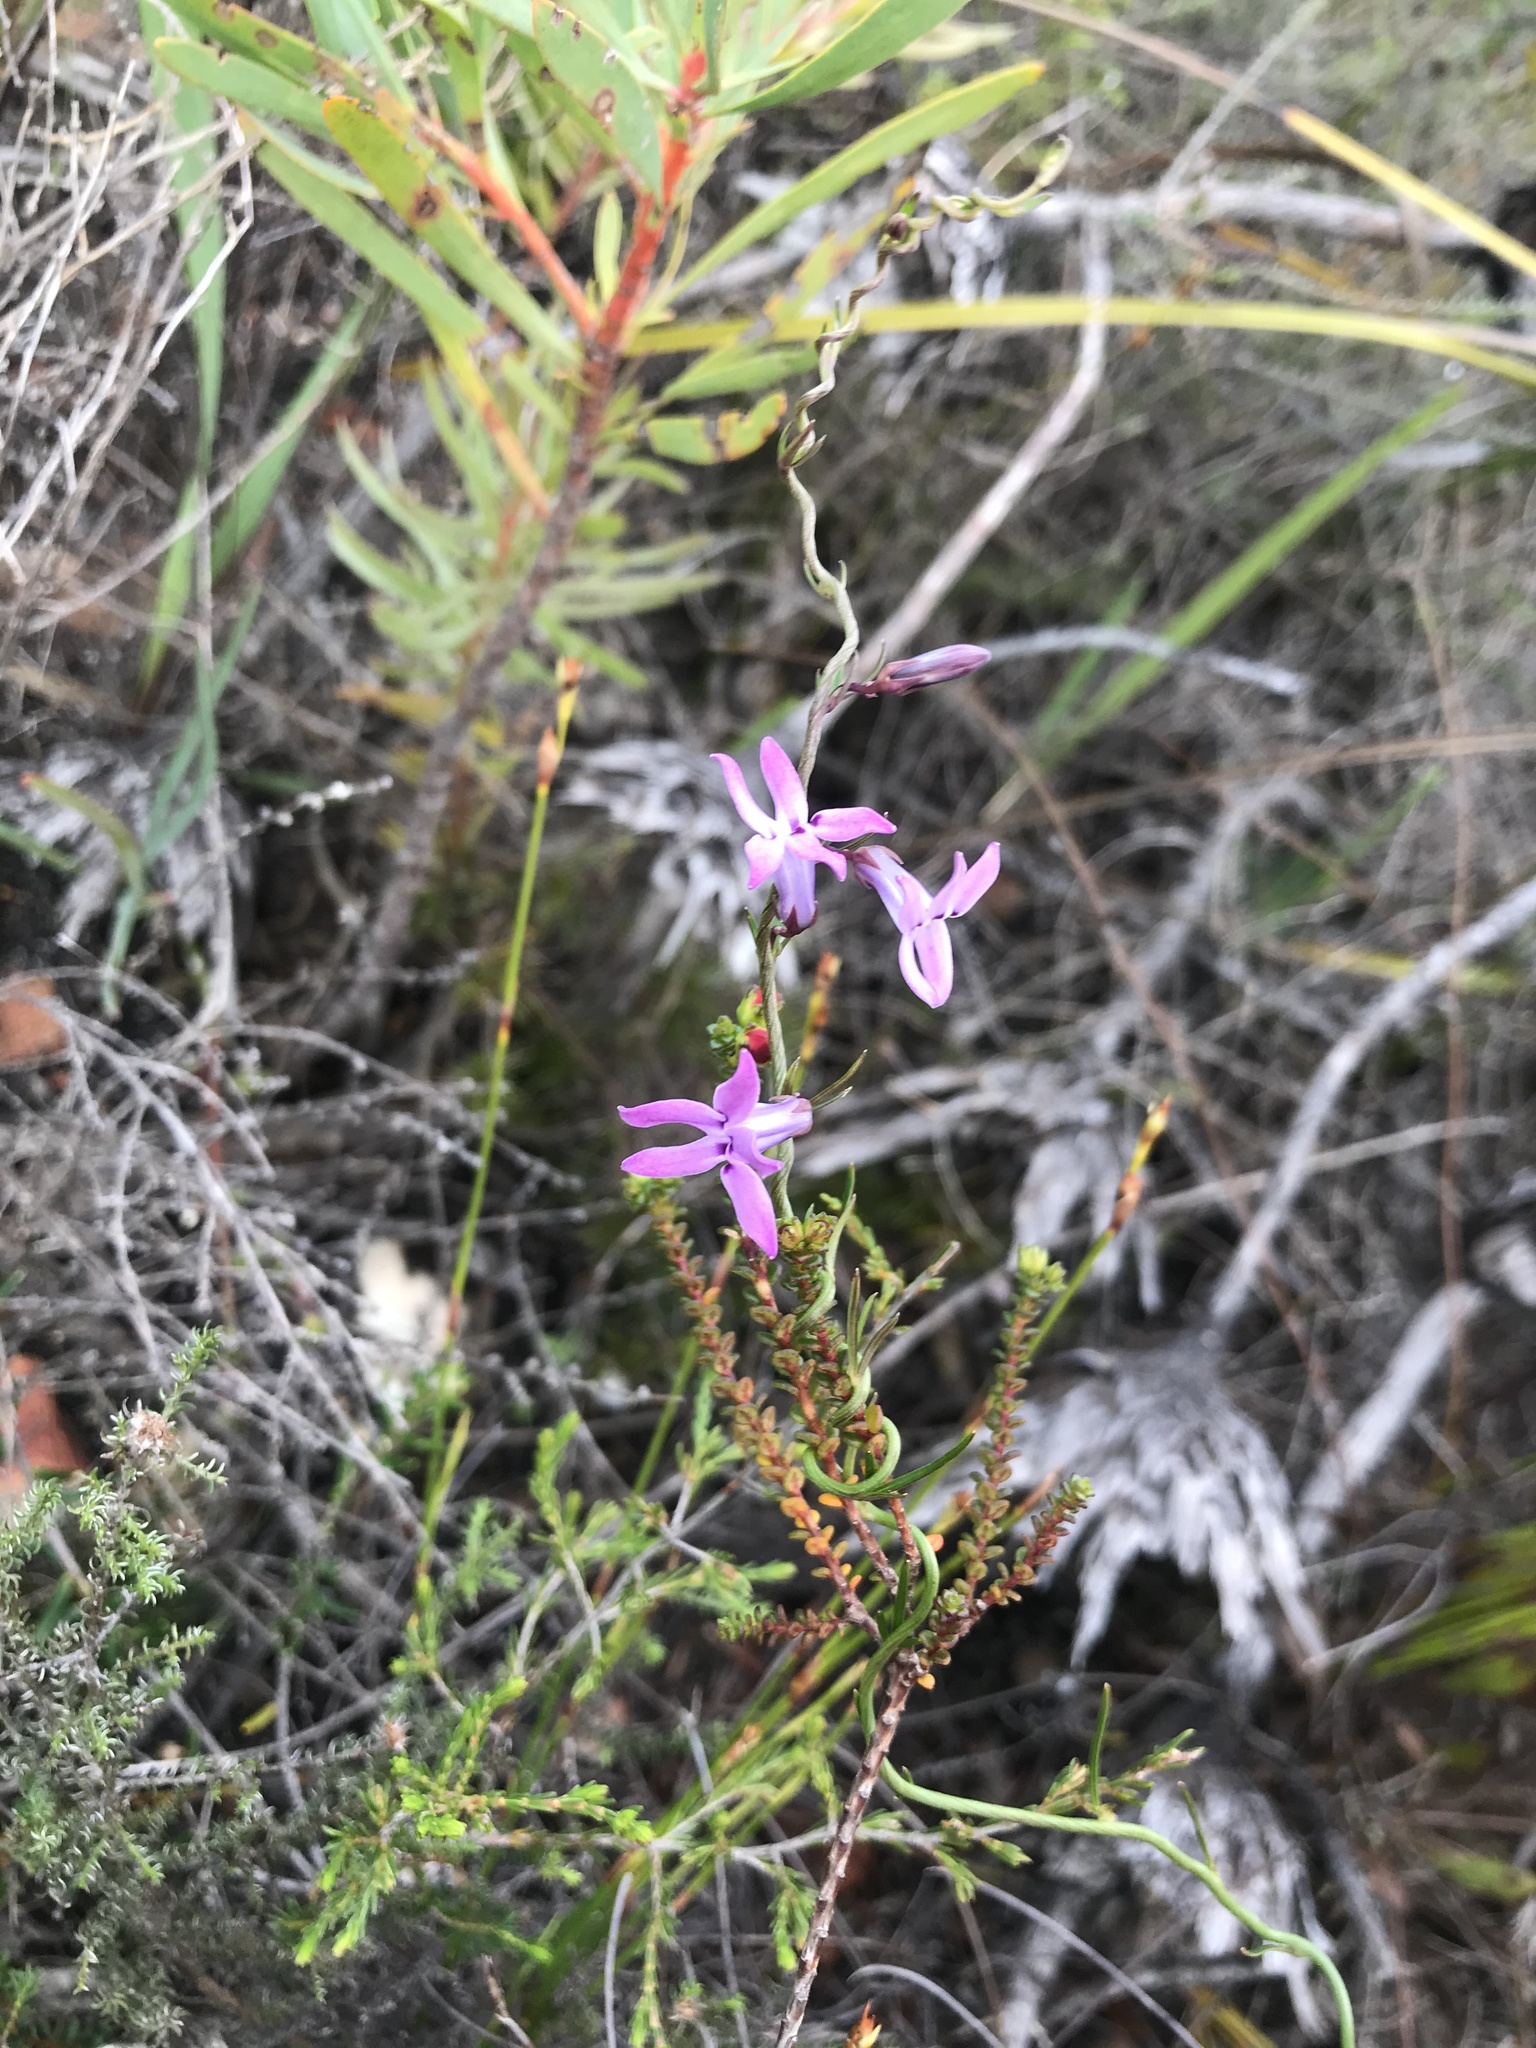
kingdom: Plantae
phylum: Tracheophyta
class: Magnoliopsida
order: Asterales
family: Campanulaceae
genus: Cyphia
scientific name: Cyphia volubilis
